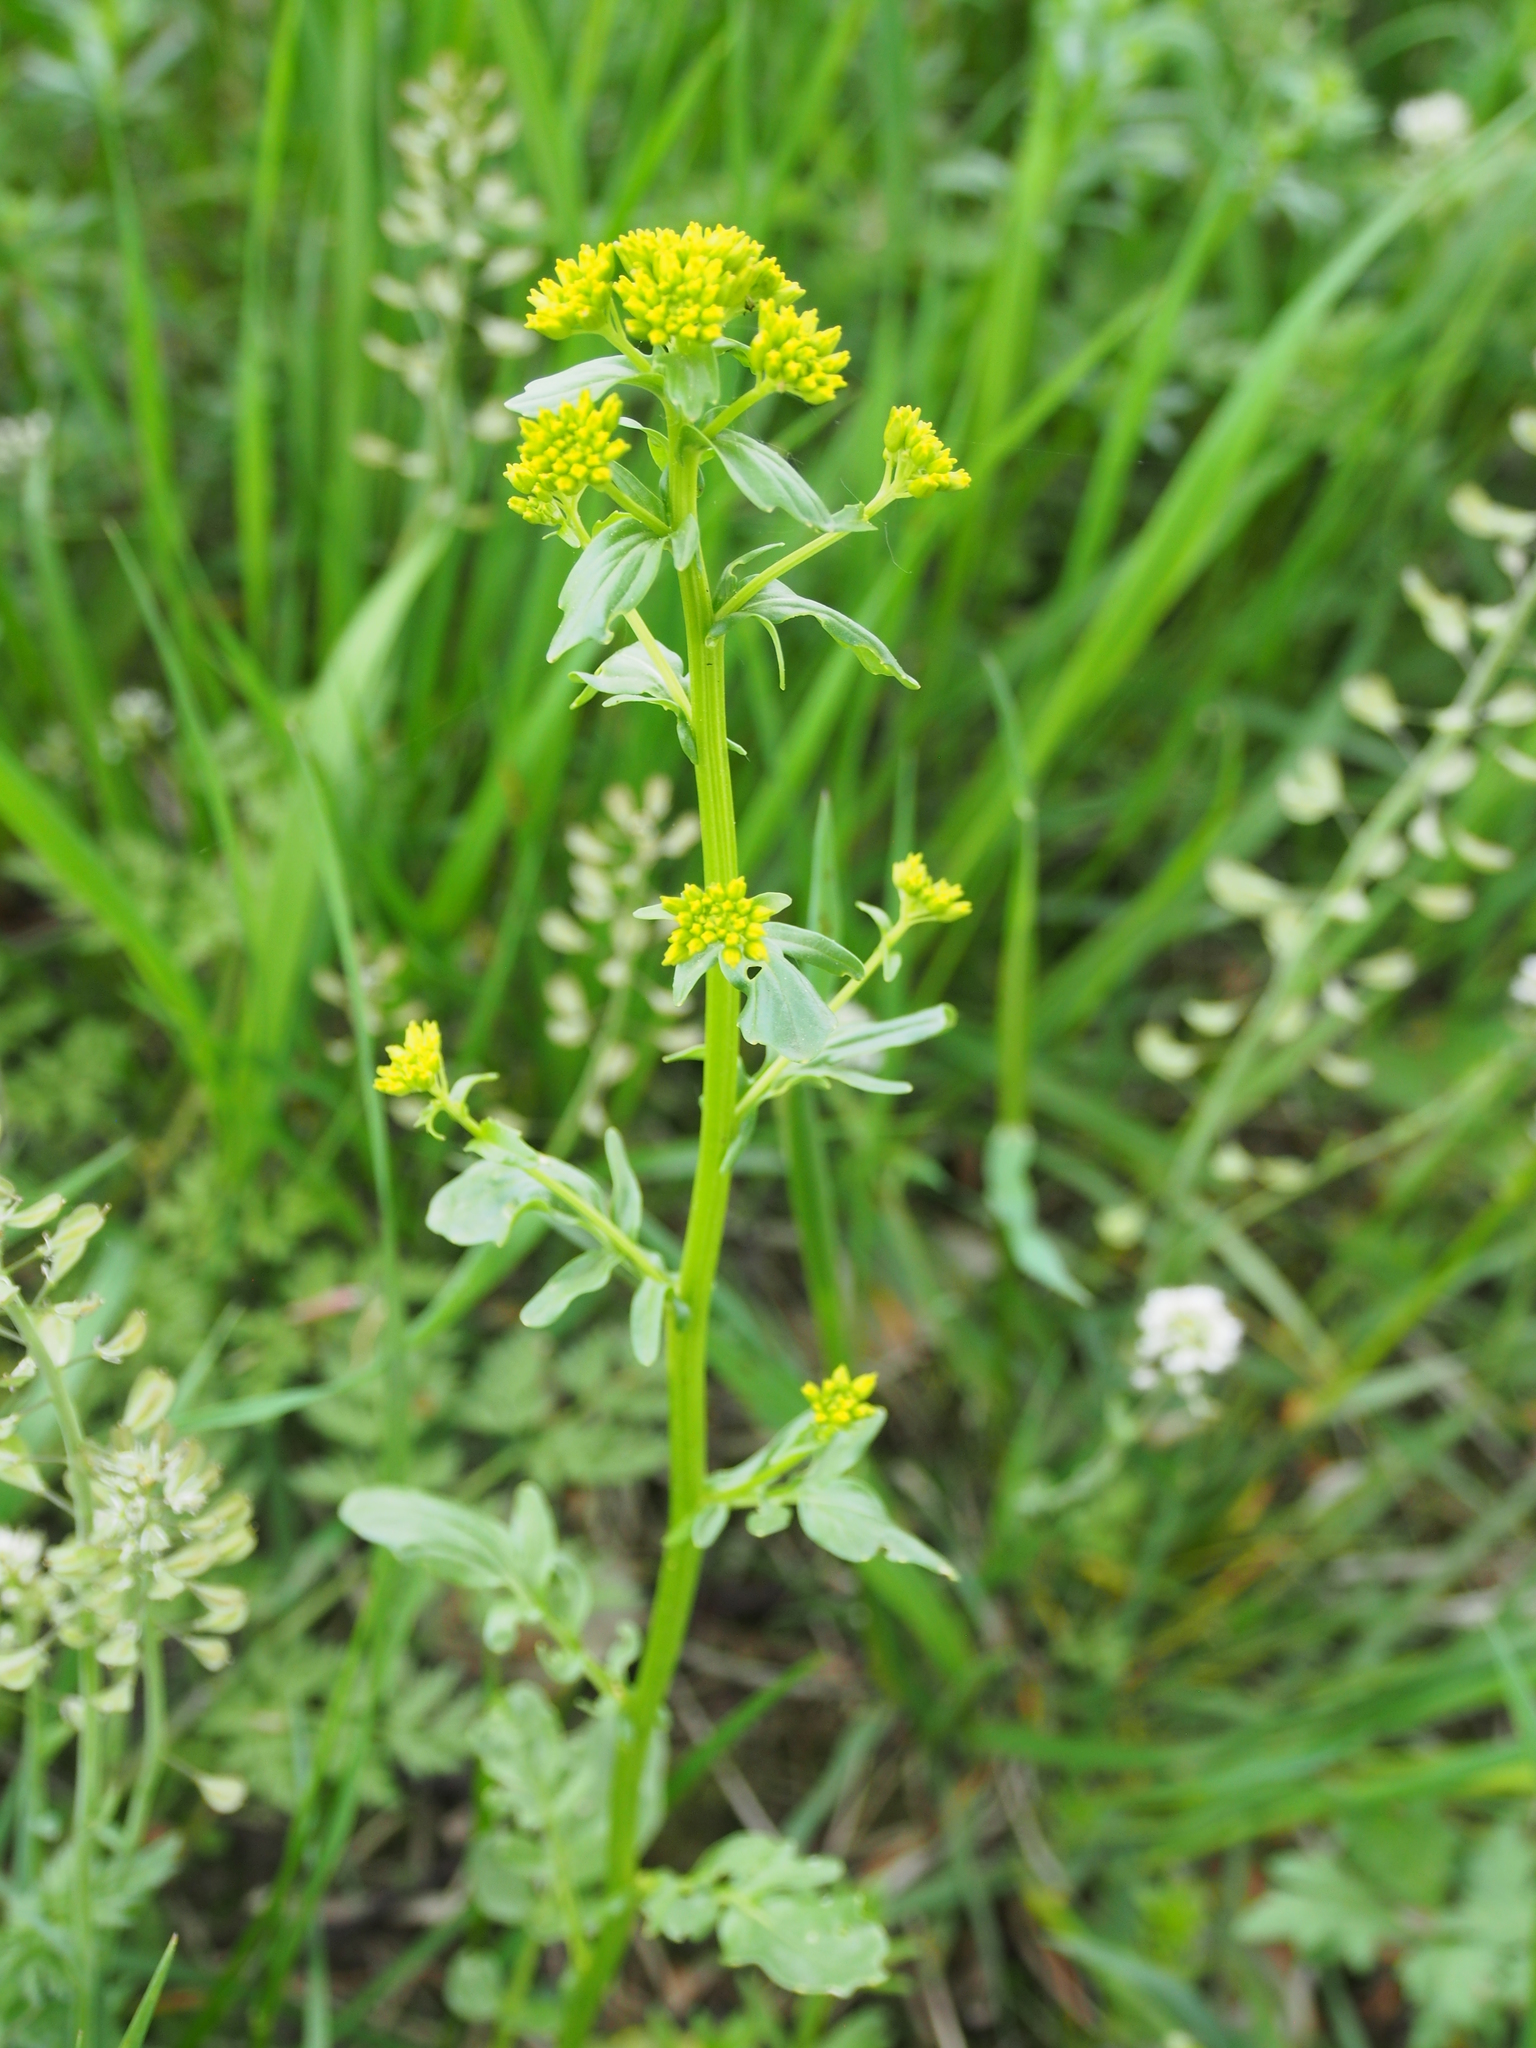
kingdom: Plantae
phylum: Tracheophyta
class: Magnoliopsida
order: Brassicales
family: Brassicaceae
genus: Barbarea
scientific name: Barbarea vulgaris
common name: Cressy-greens
